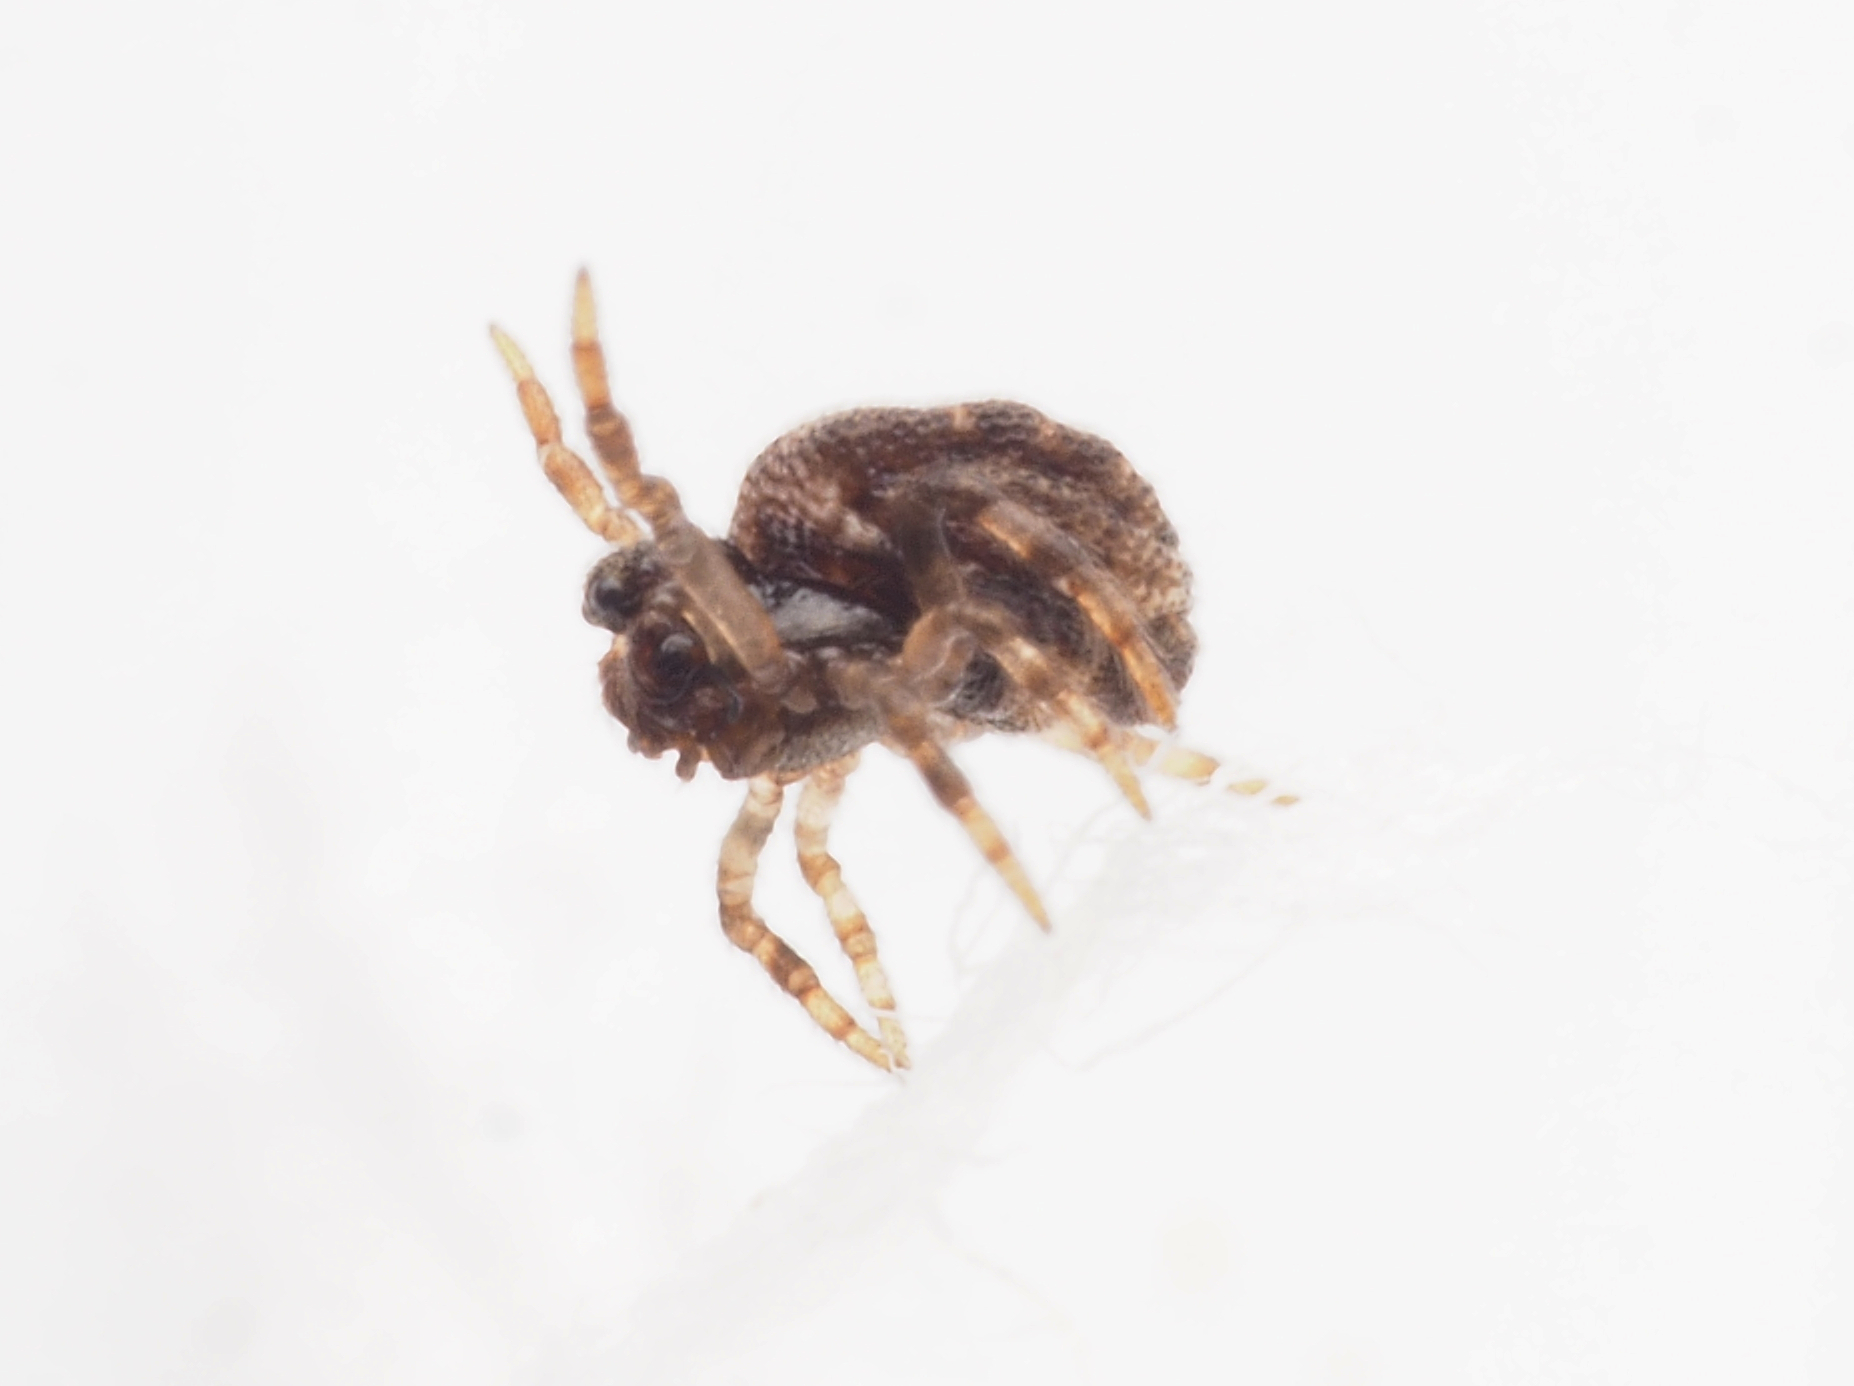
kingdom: Animalia
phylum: Arthropoda
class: Arachnida
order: Araneae
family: Theridiidae
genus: Phoroncidia
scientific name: Phoroncidia
